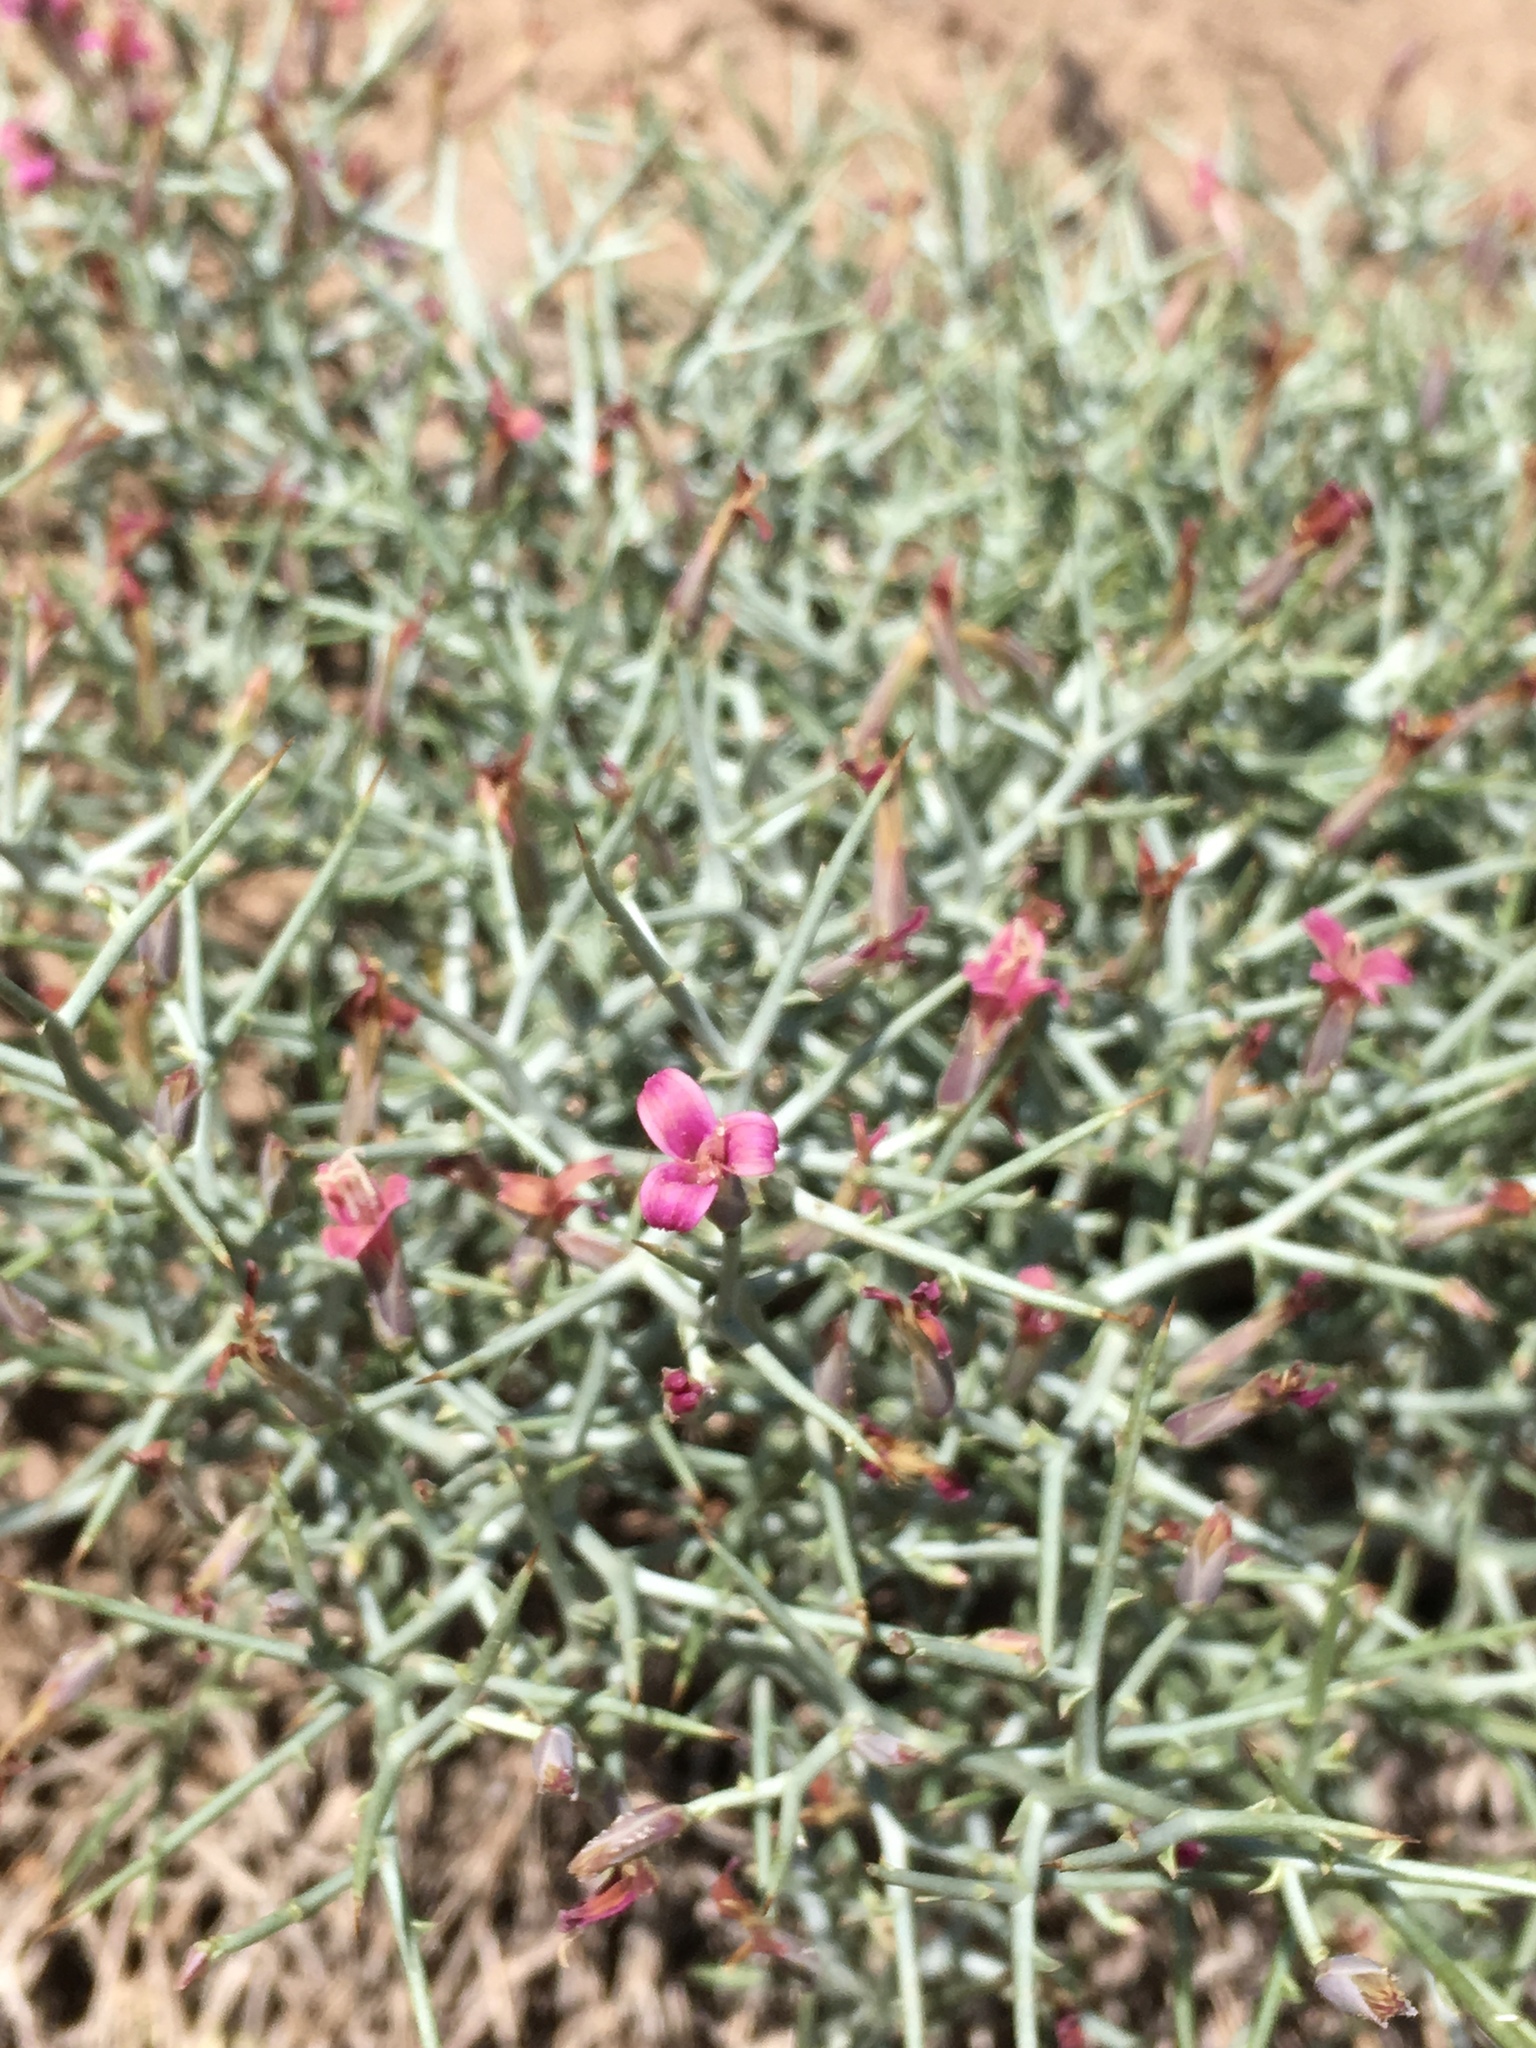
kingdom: Plantae
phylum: Tracheophyta
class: Magnoliopsida
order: Asterales
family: Asteraceae
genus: Pleiacanthus
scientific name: Pleiacanthus spinosus
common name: Thorny skeleton-weed
